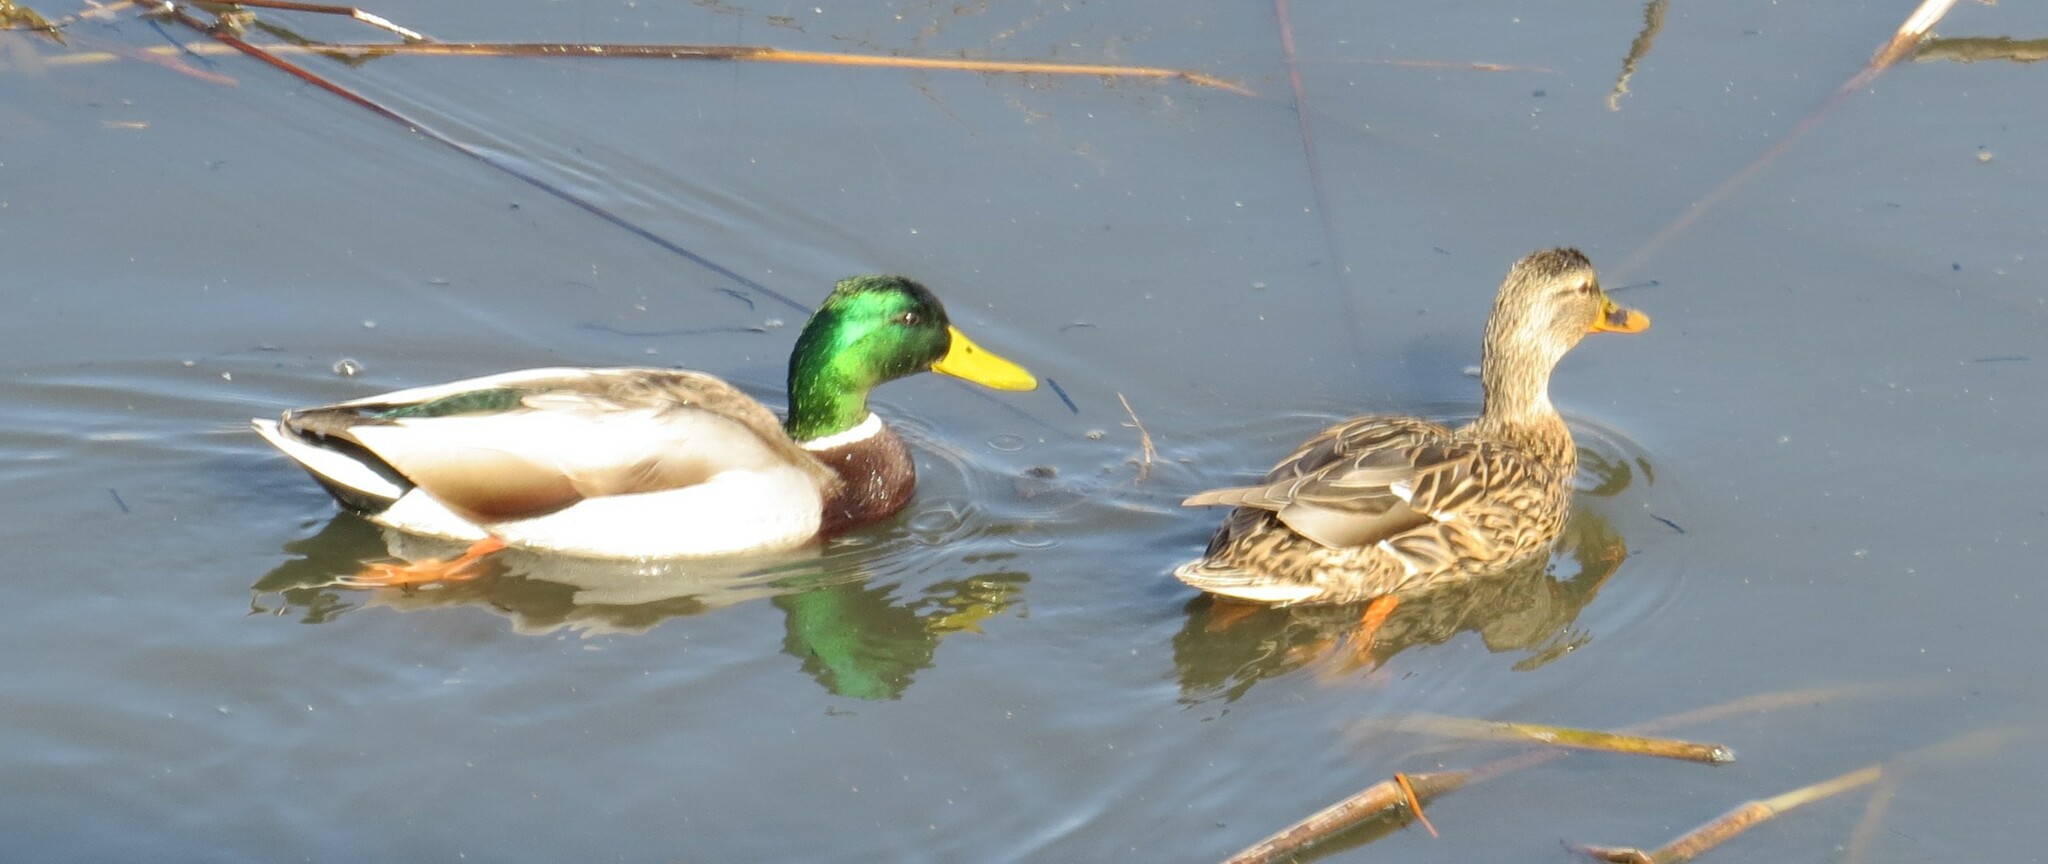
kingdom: Animalia
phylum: Chordata
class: Aves
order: Anseriformes
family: Anatidae
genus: Anas
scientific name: Anas platyrhynchos
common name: Mallard
